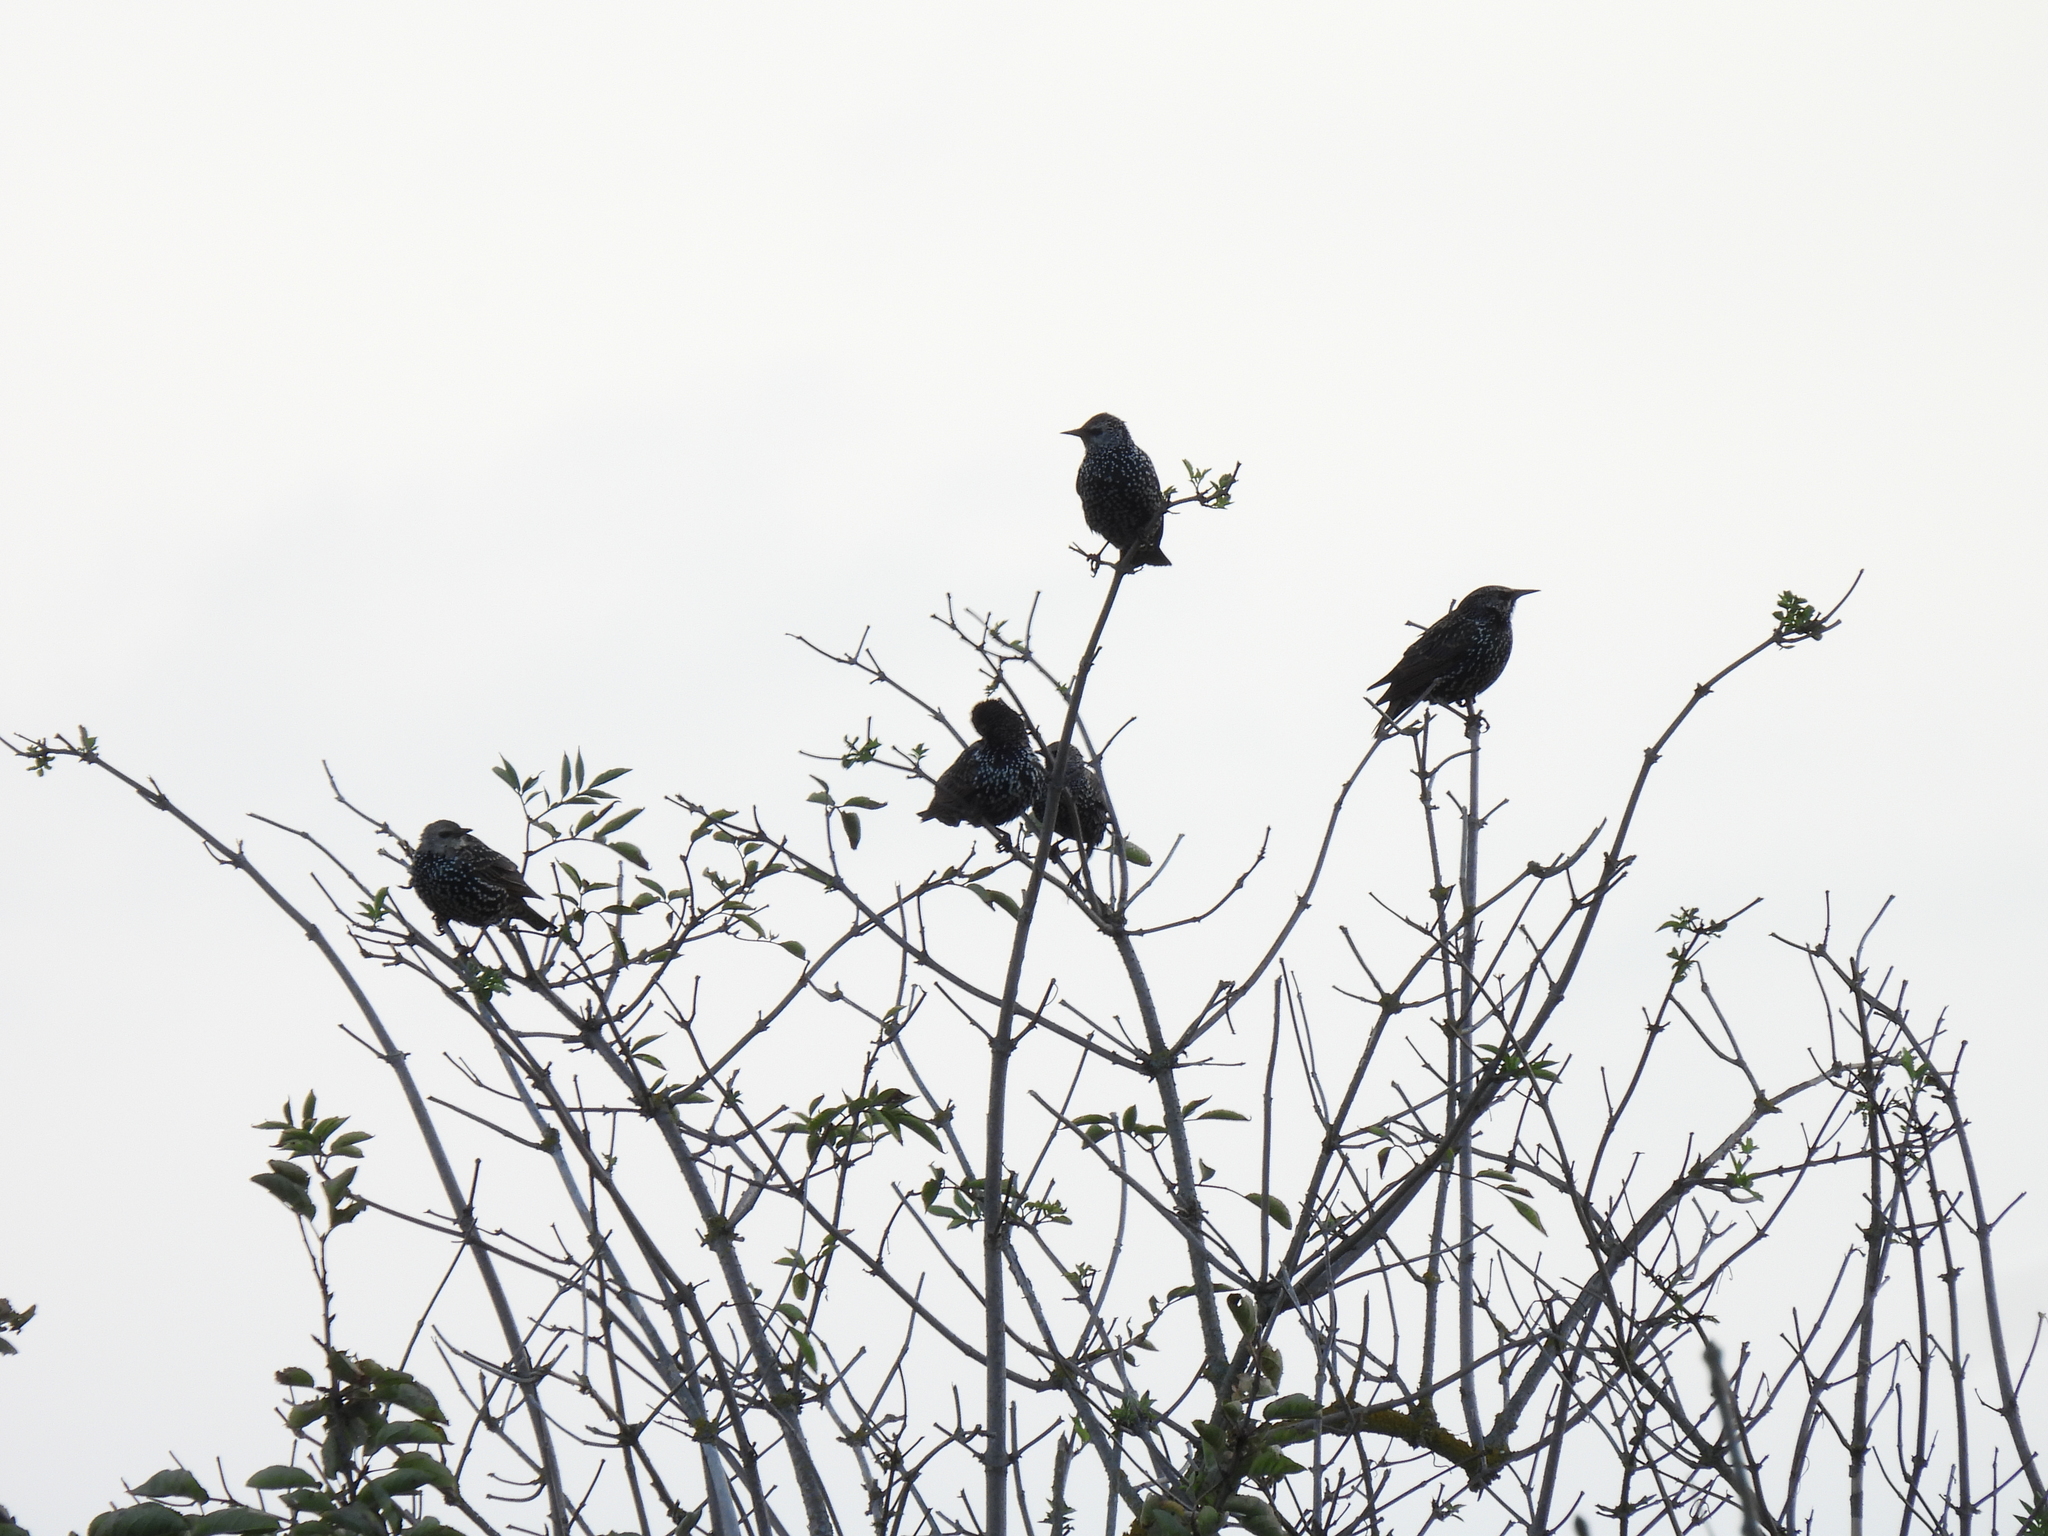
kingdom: Animalia
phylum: Chordata
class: Aves
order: Passeriformes
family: Sturnidae
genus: Sturnus
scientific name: Sturnus vulgaris
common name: Common starling
